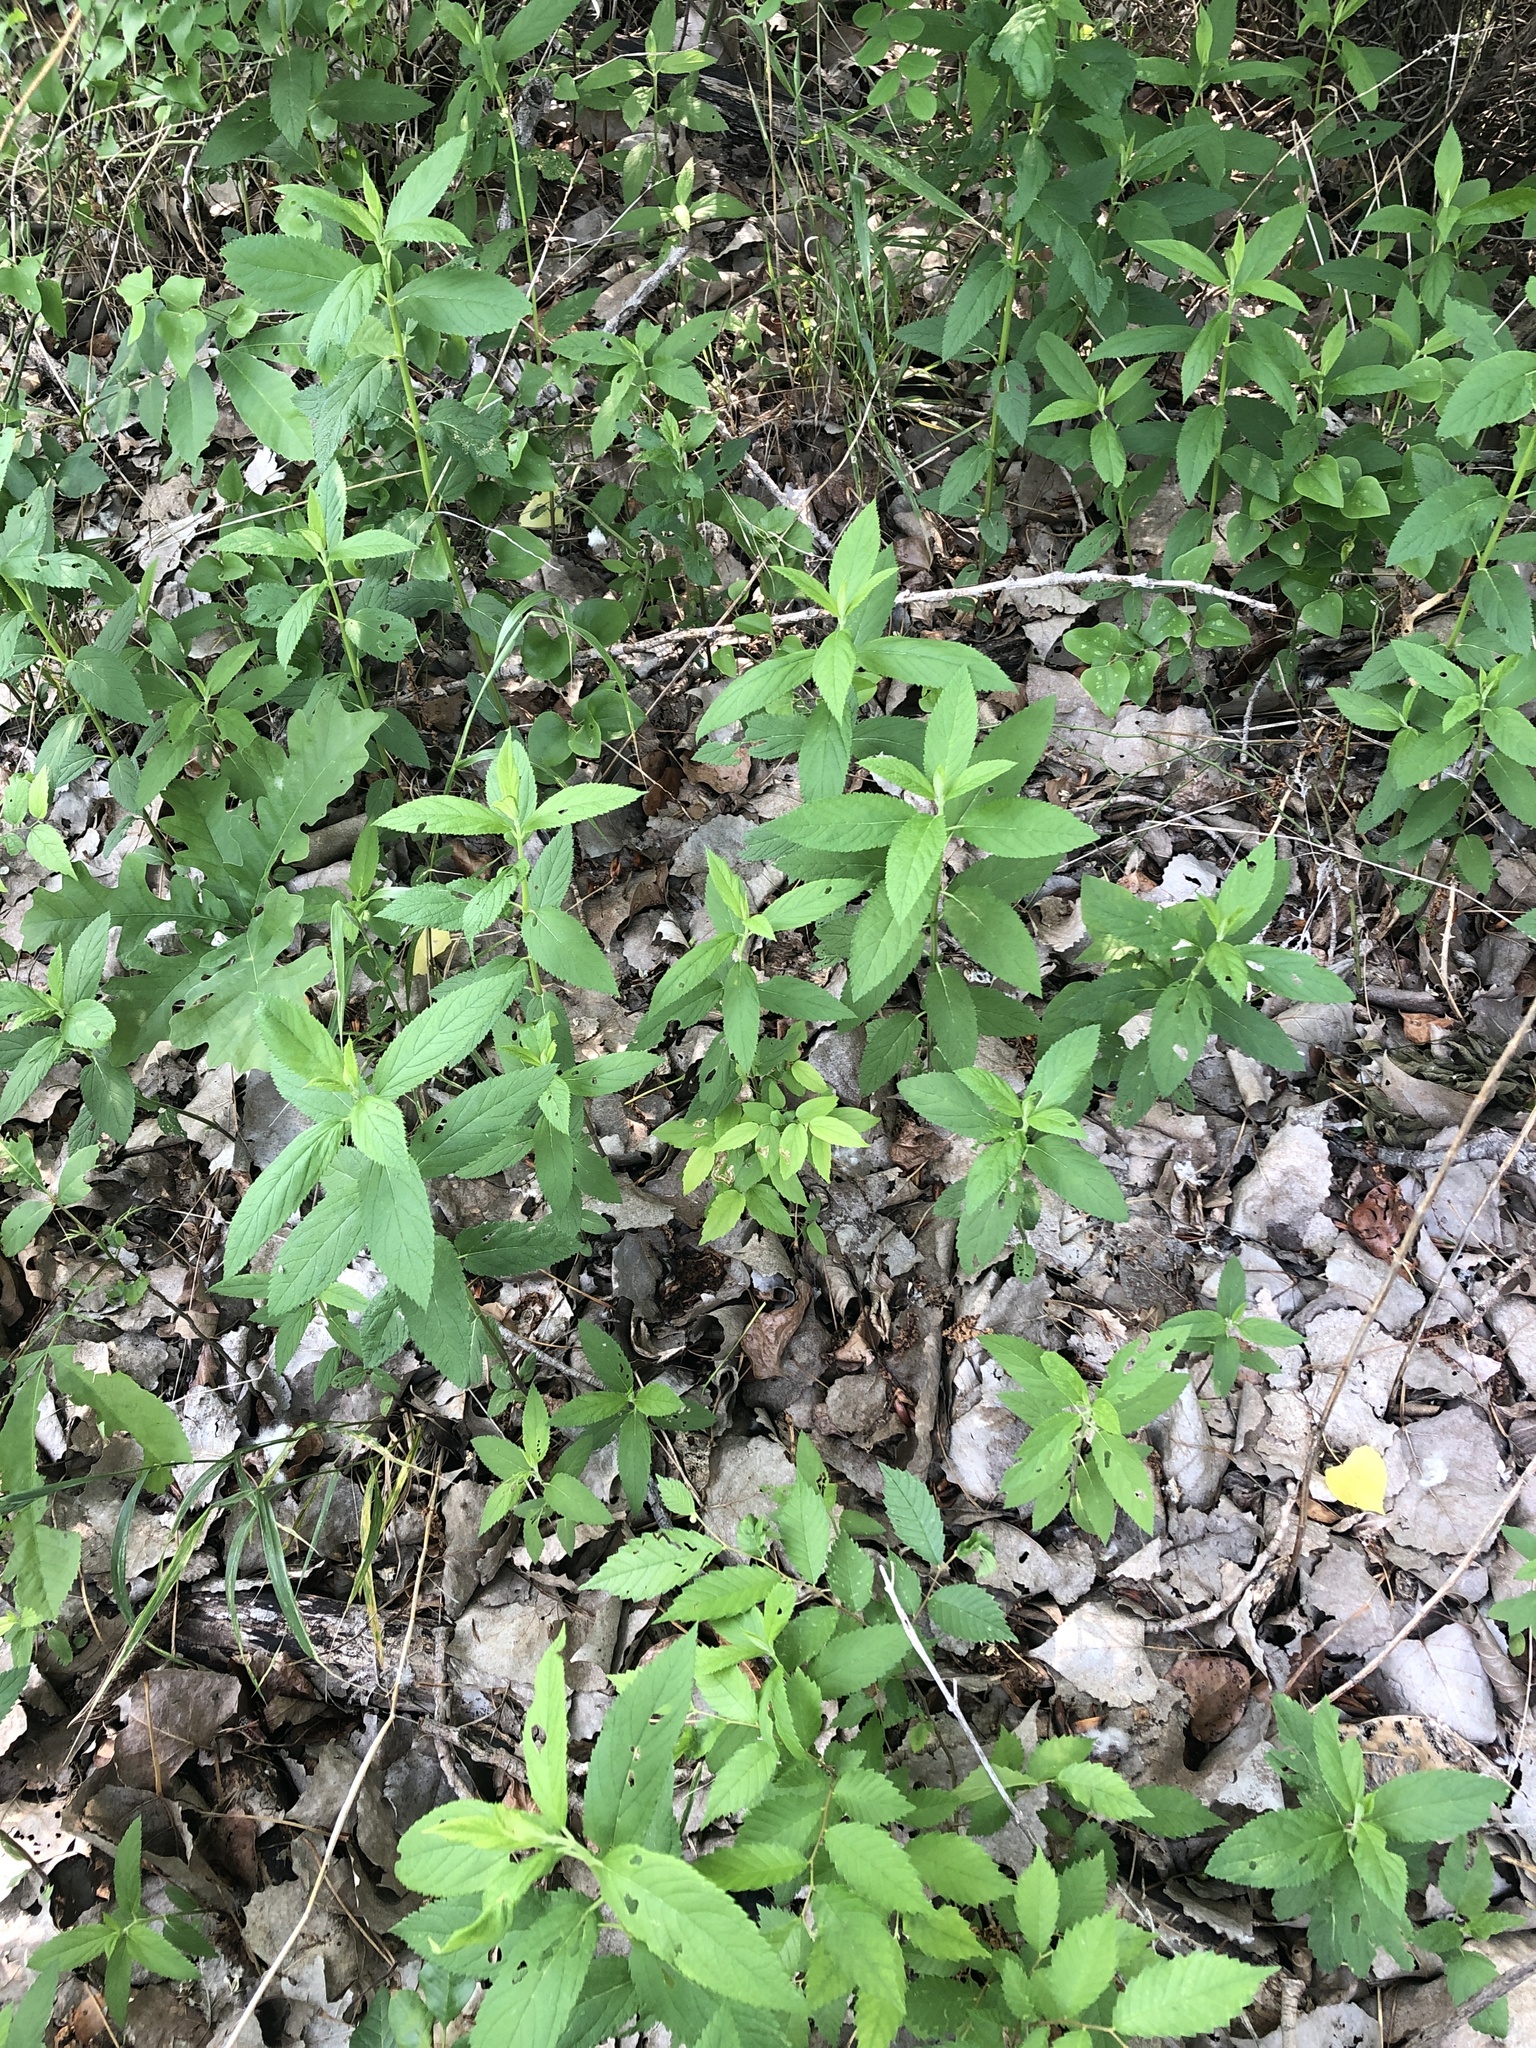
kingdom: Plantae
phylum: Tracheophyta
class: Magnoliopsida
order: Lamiales
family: Lamiaceae
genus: Teucrium
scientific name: Teucrium canadense
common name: American germander
